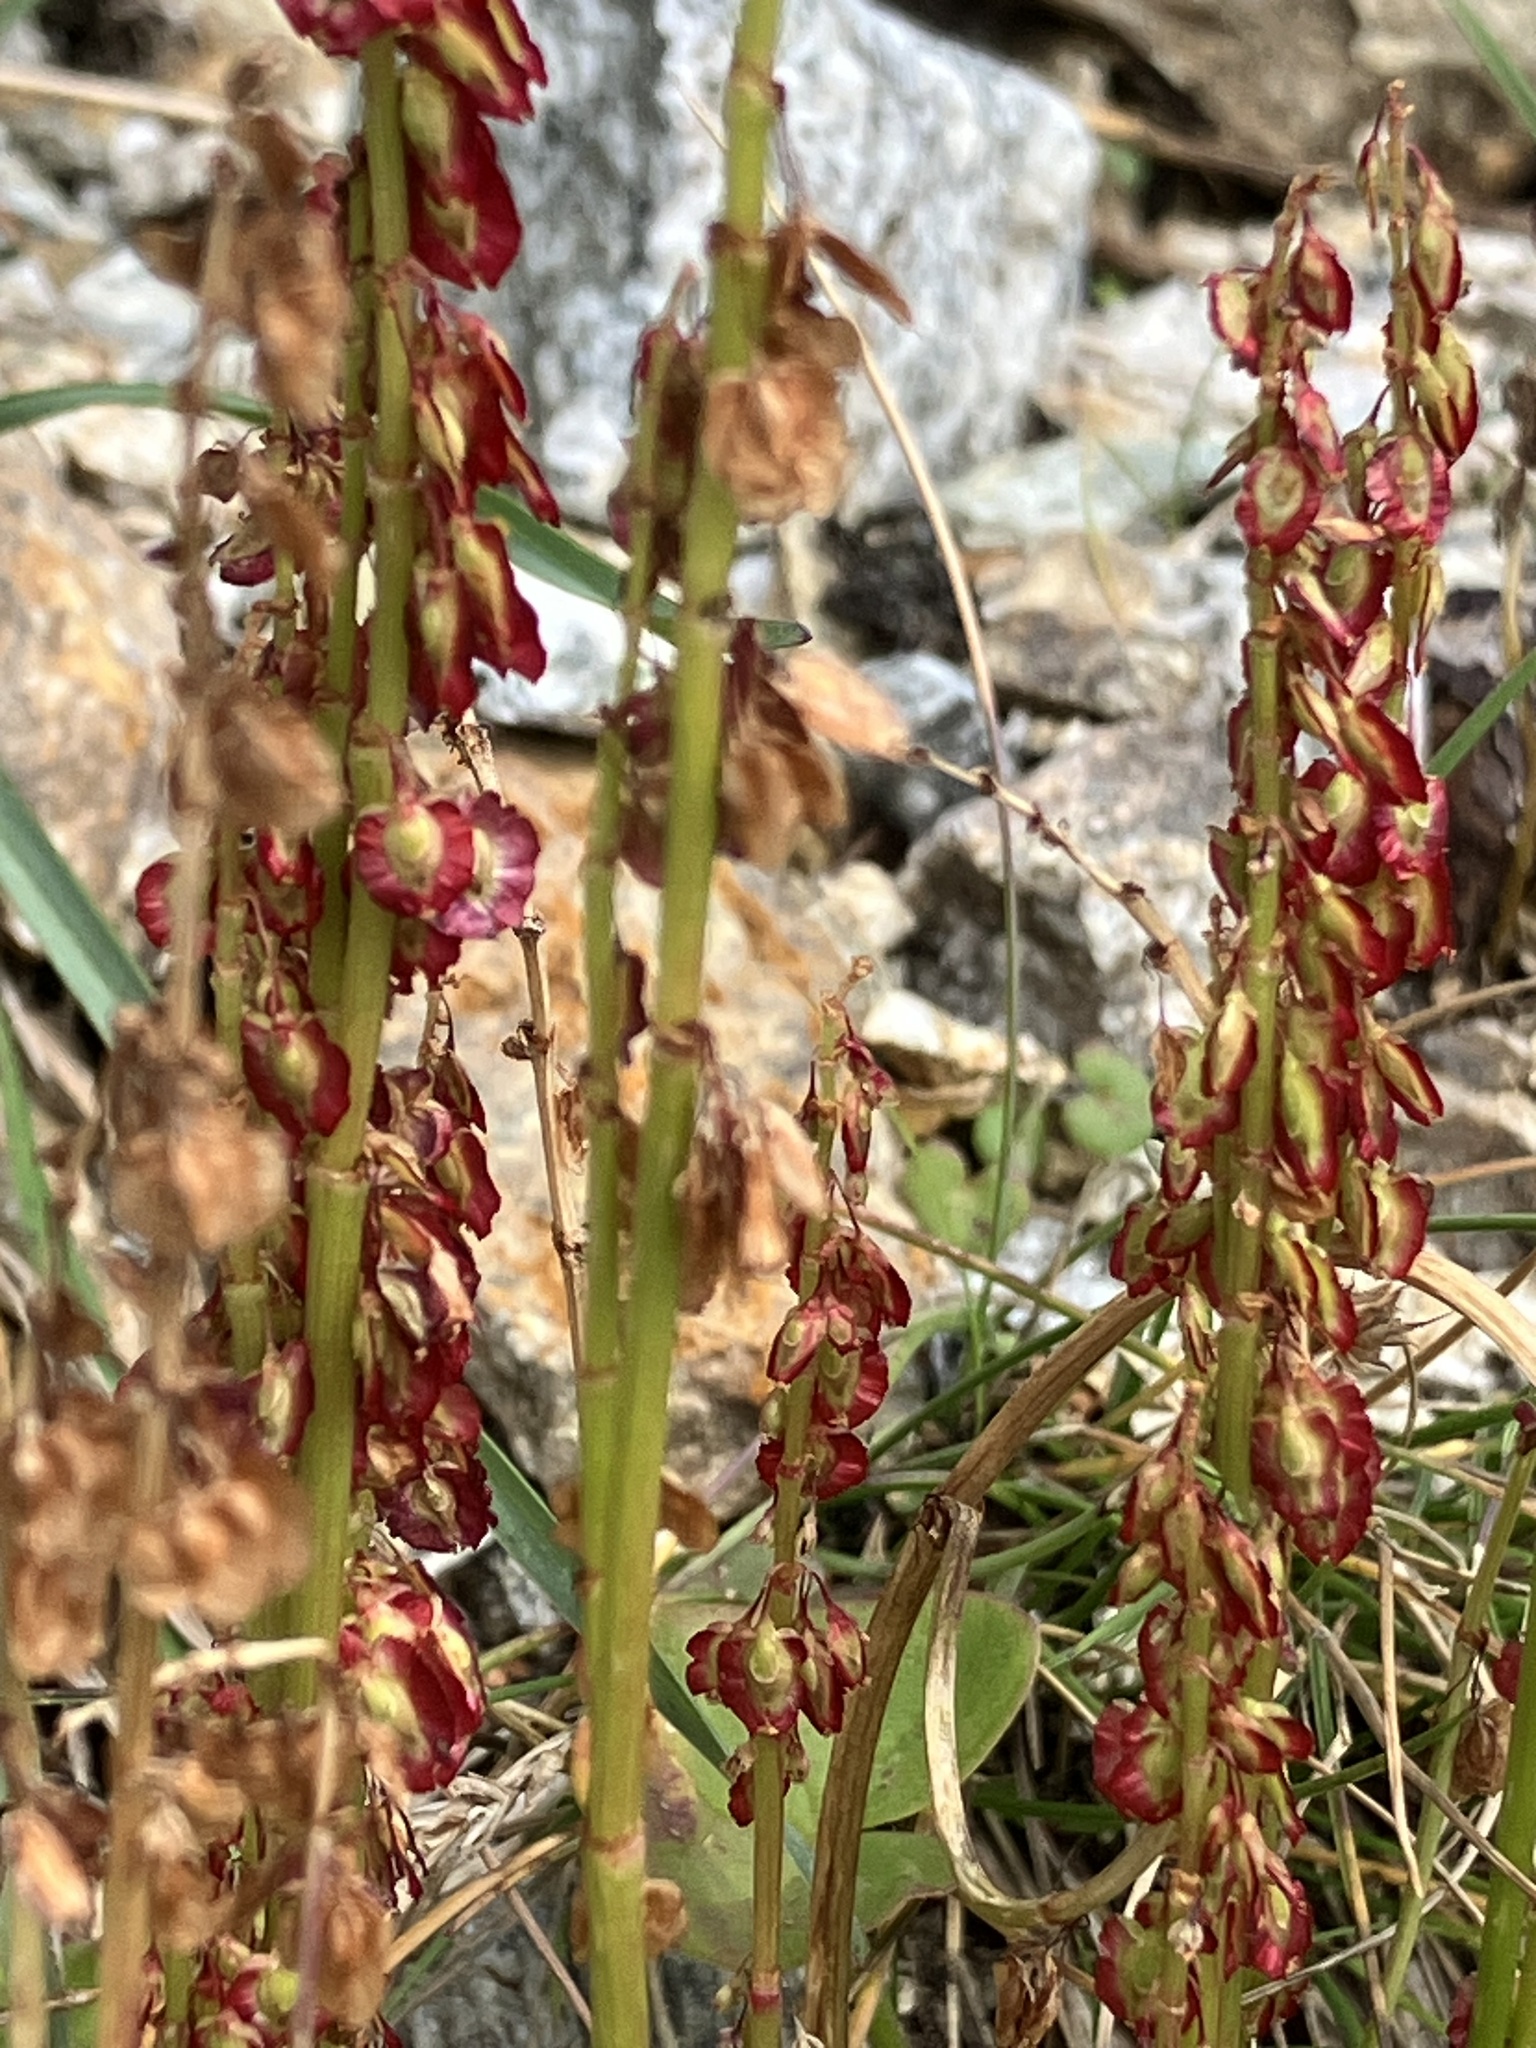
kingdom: Plantae
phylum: Tracheophyta
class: Magnoliopsida
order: Caryophyllales
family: Polygonaceae
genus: Oxyria
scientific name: Oxyria digyna
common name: Alpine mountain-sorrel
